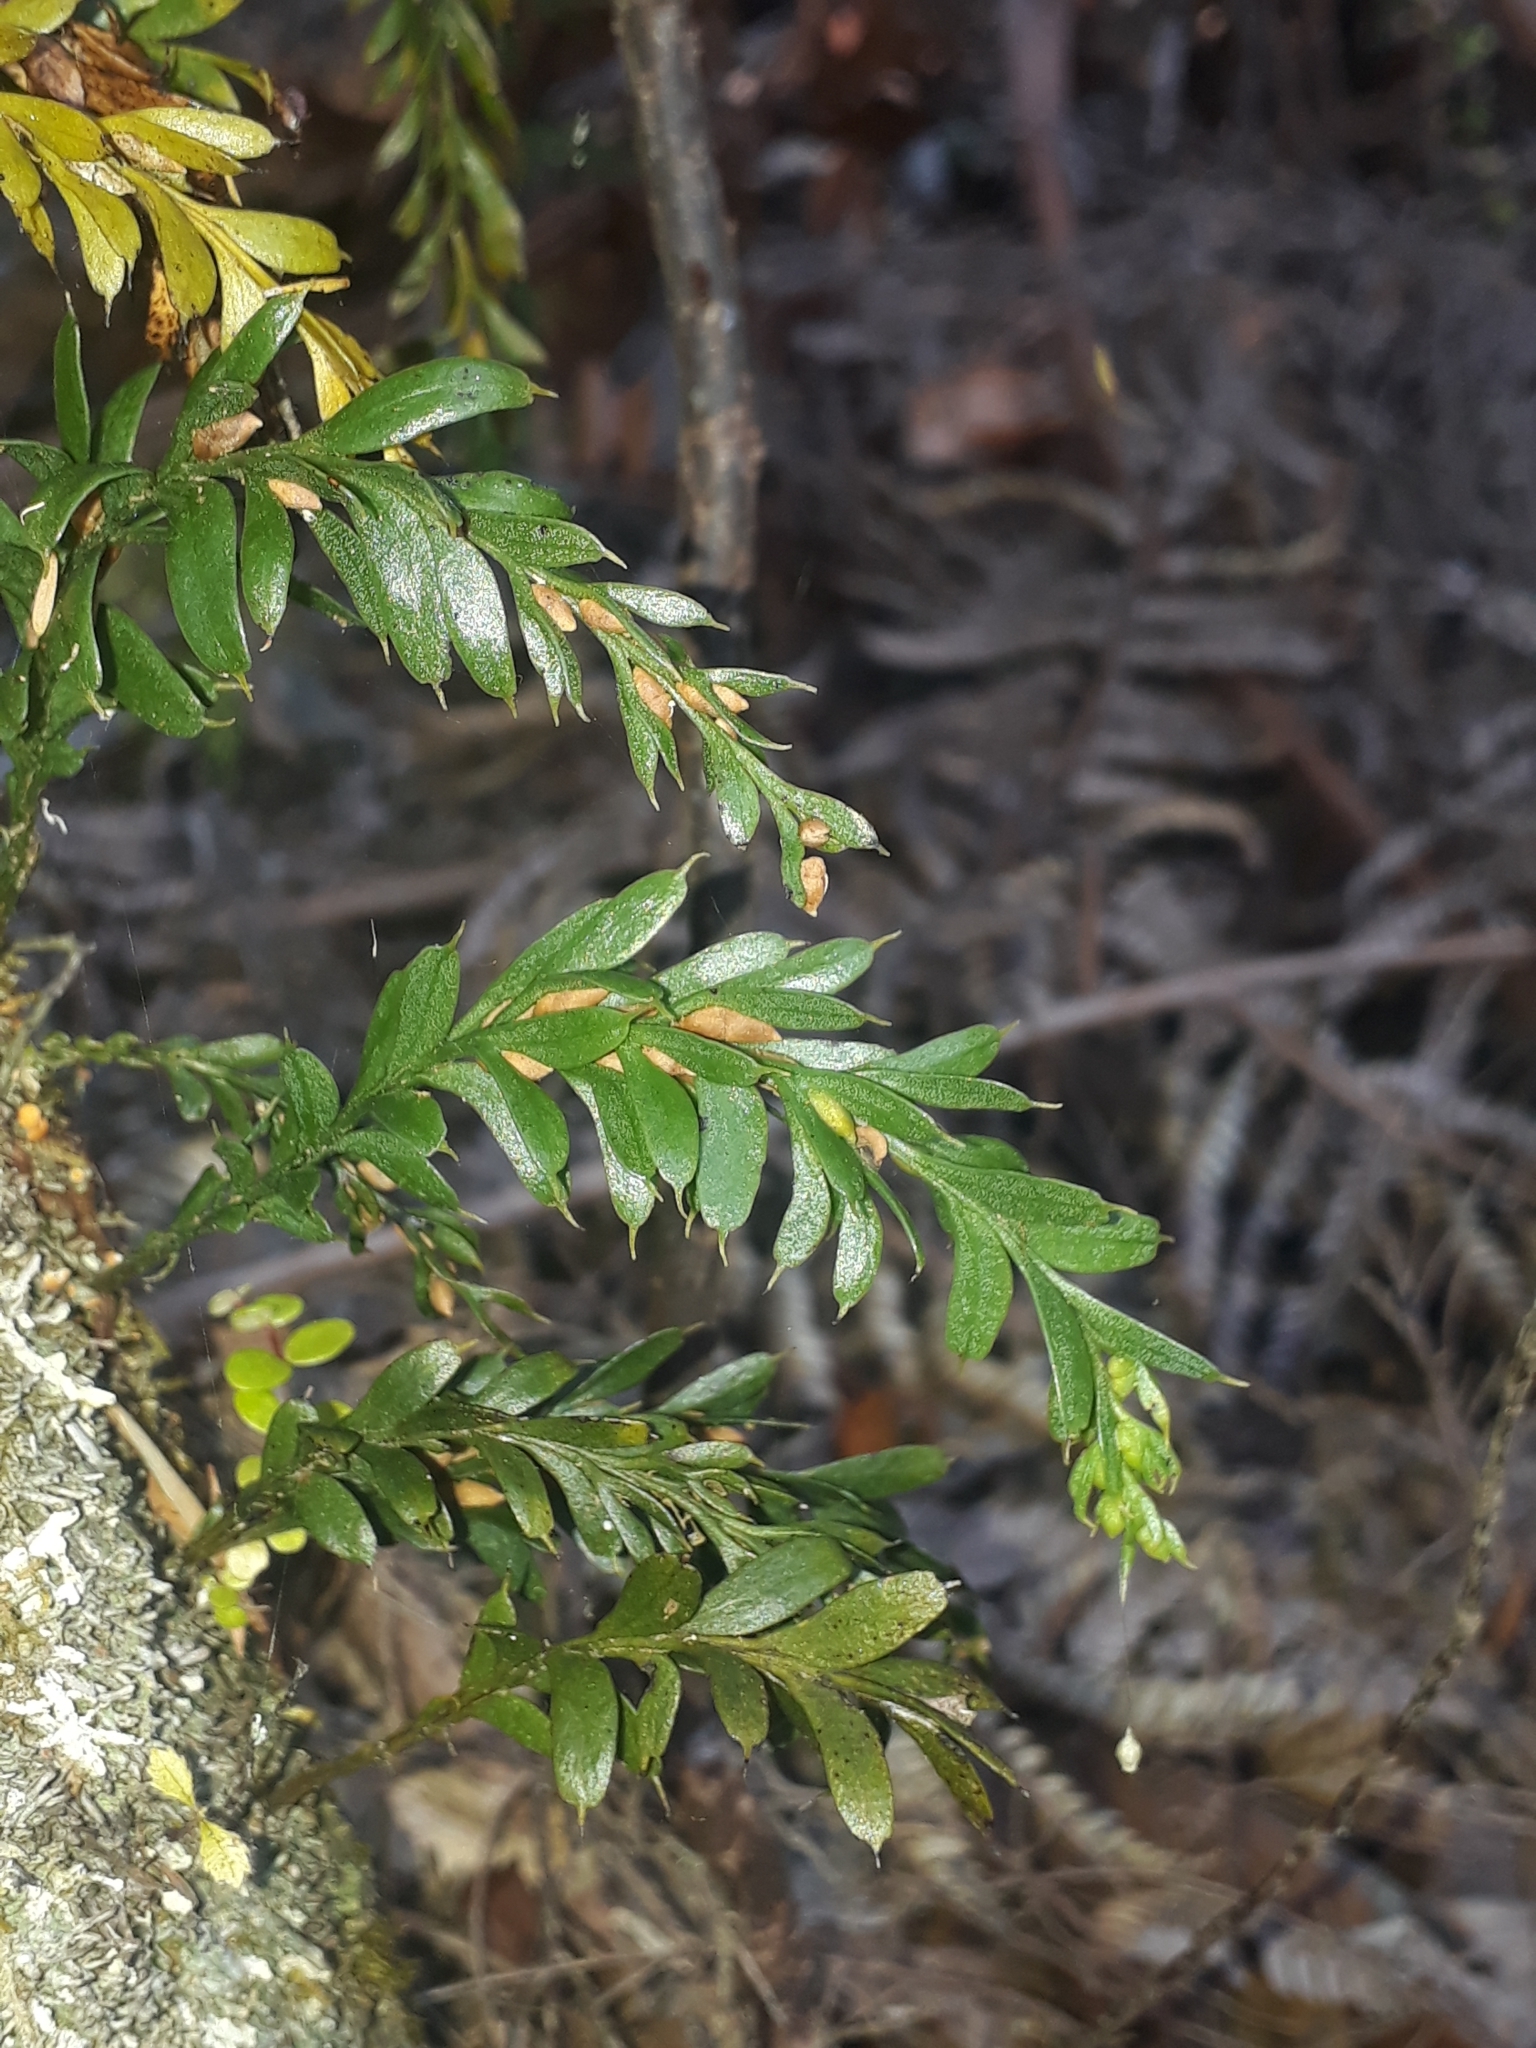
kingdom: Plantae
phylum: Tracheophyta
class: Polypodiopsida
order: Psilotales
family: Psilotaceae
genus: Tmesipteris
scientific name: Tmesipteris tannensis
